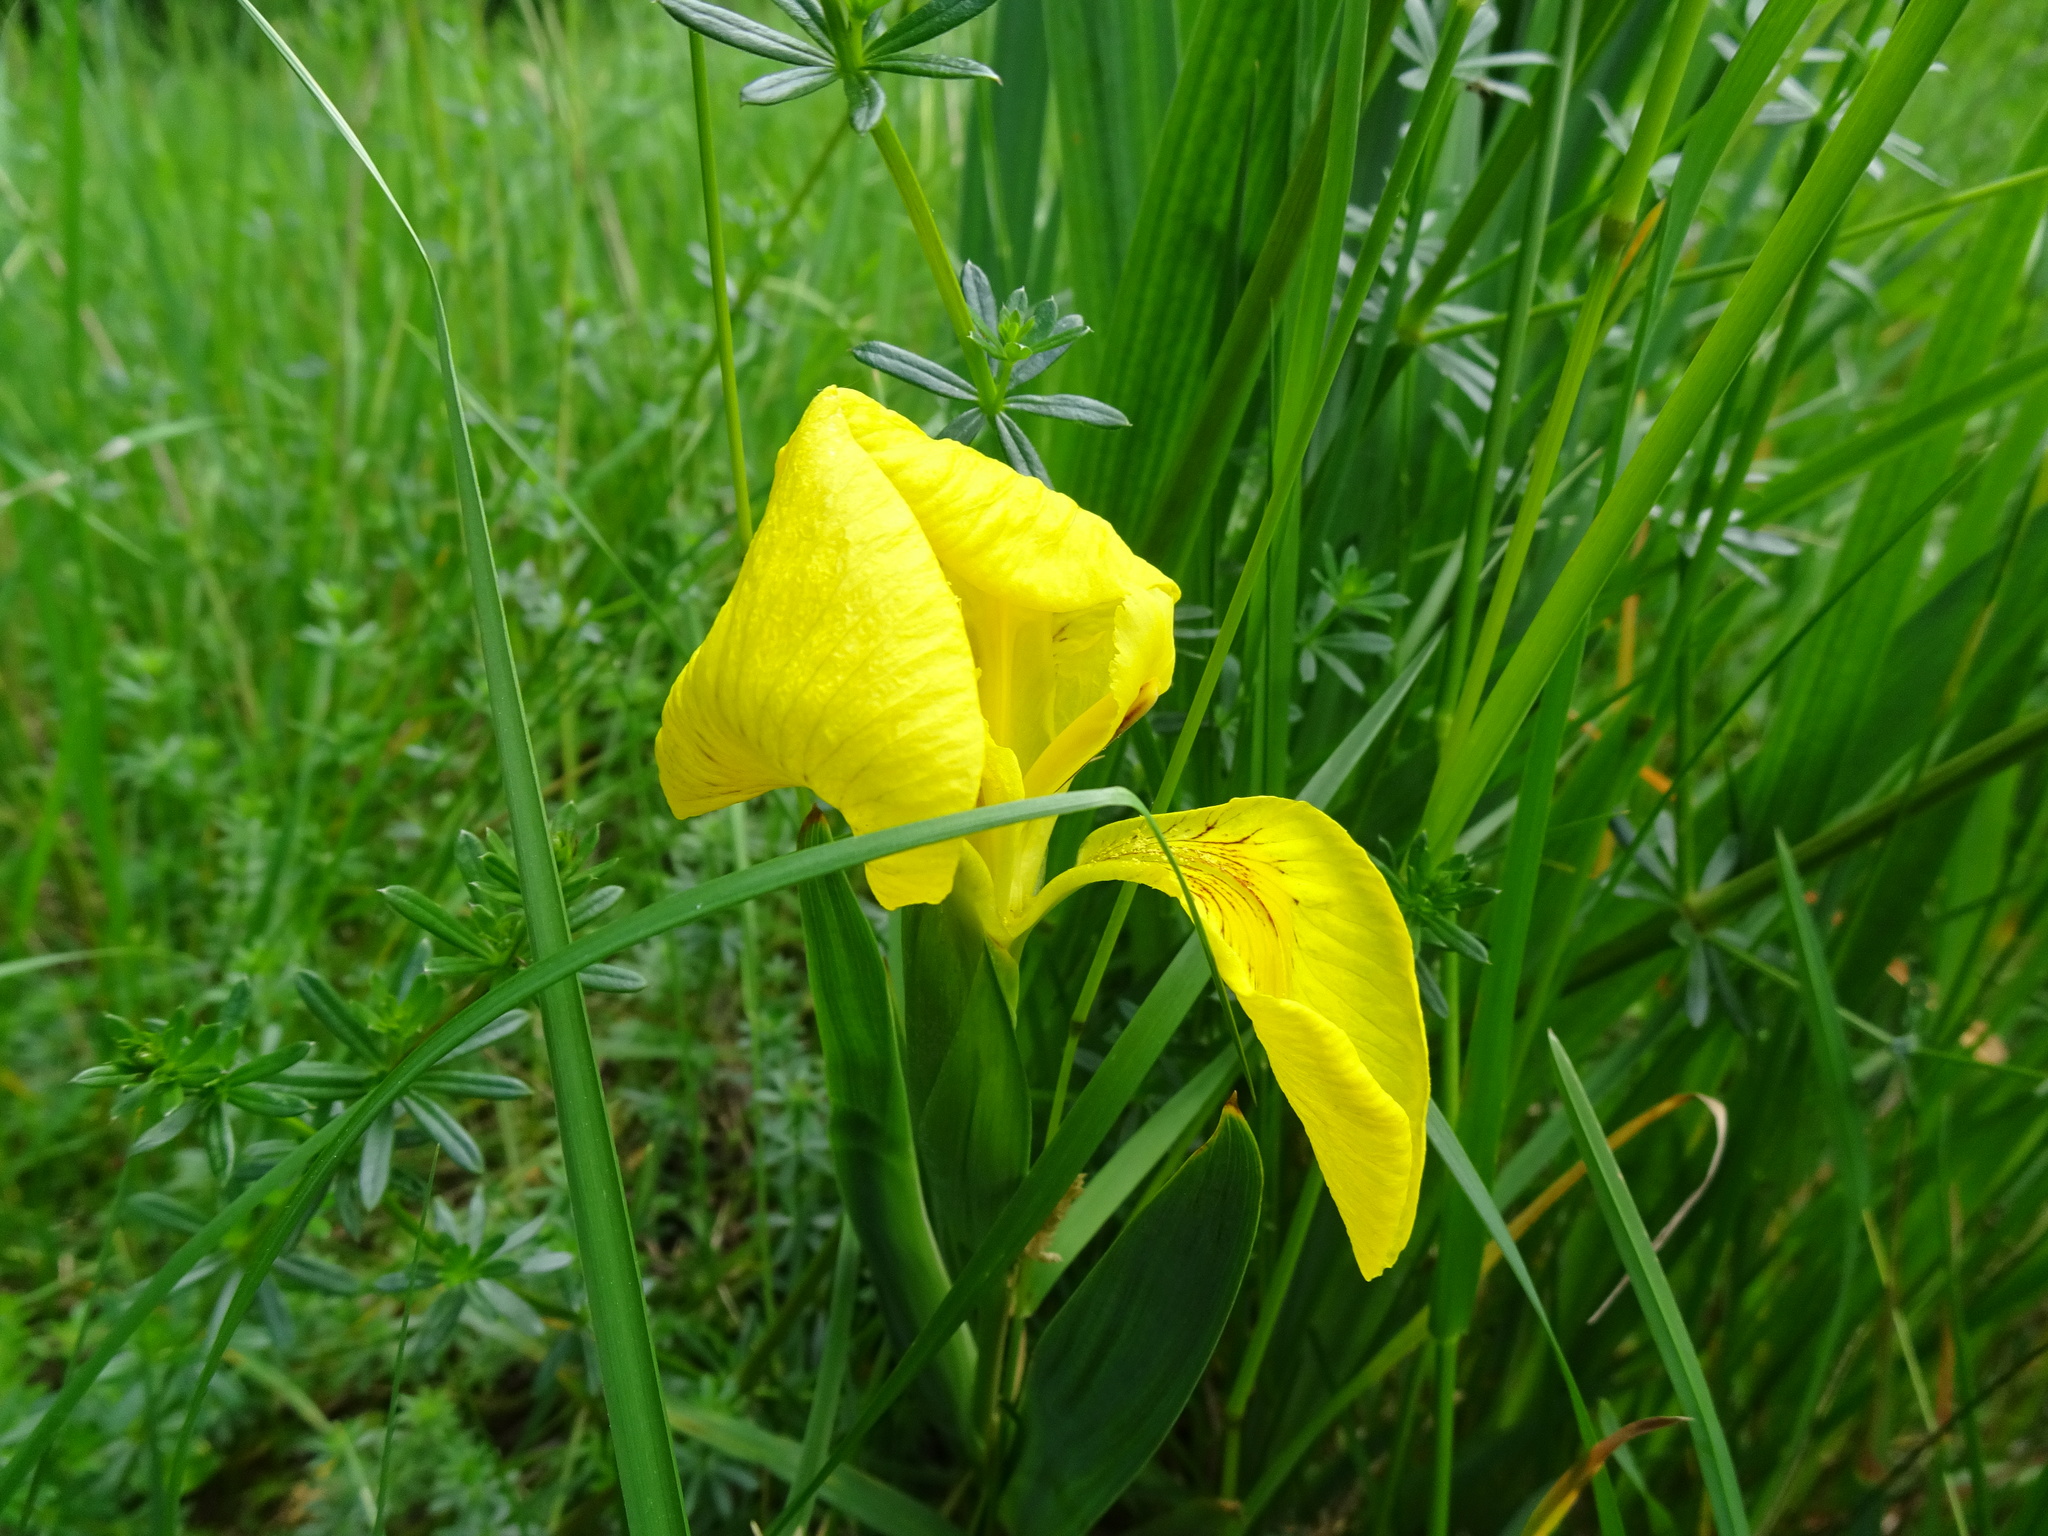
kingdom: Plantae
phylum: Tracheophyta
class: Liliopsida
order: Asparagales
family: Iridaceae
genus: Iris
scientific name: Iris pseudacorus
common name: Yellow flag
